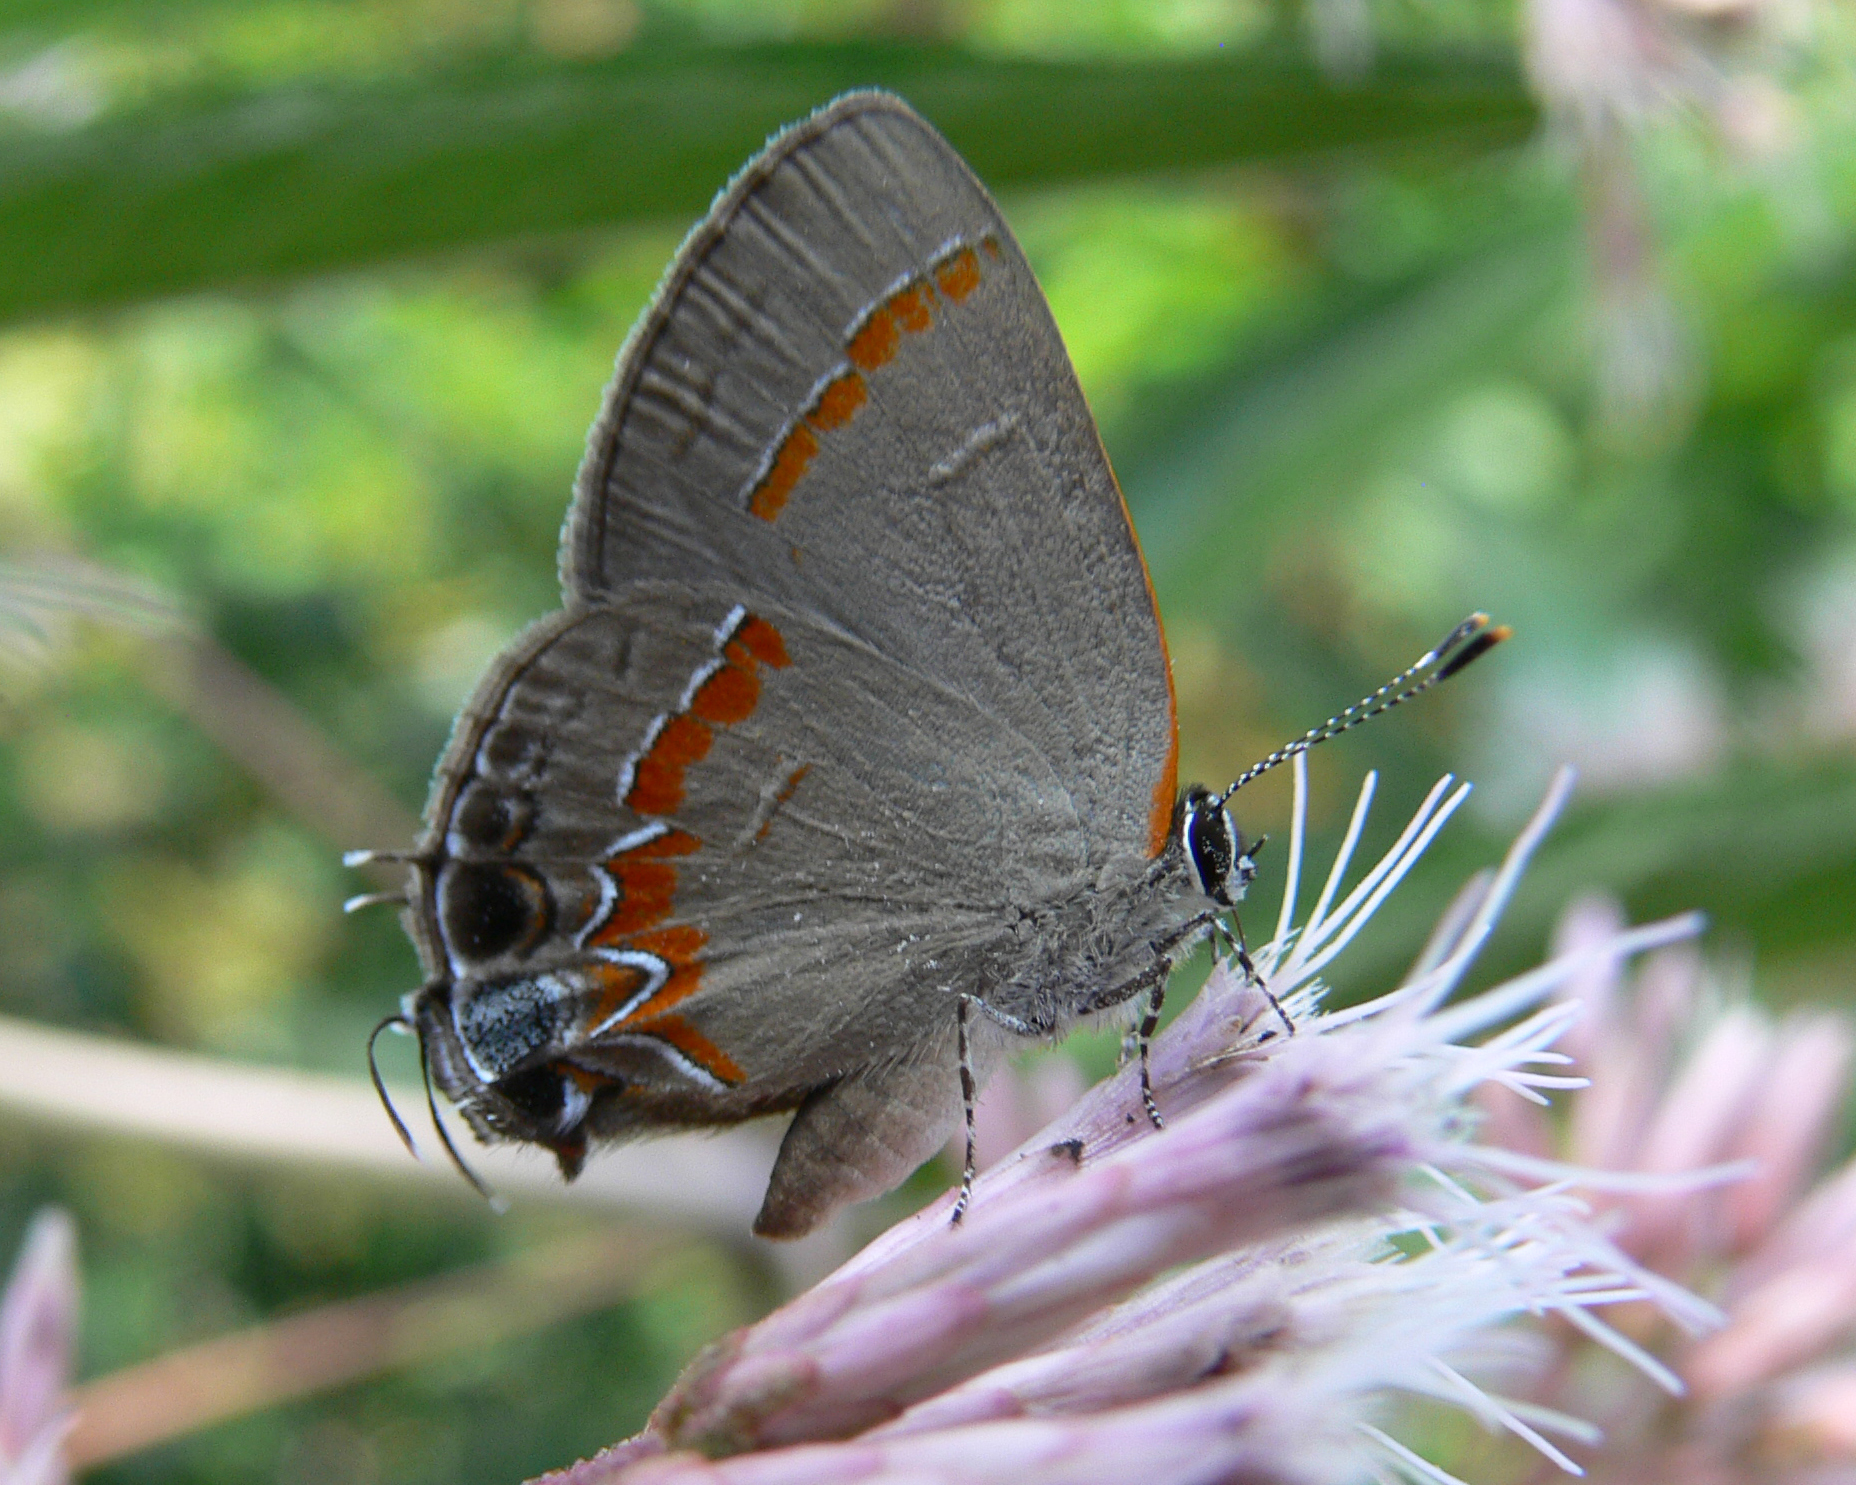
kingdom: Animalia
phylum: Arthropoda
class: Insecta
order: Lepidoptera
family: Lycaenidae
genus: Calycopis
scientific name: Calycopis cecrops
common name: Red-banded hairstreak
